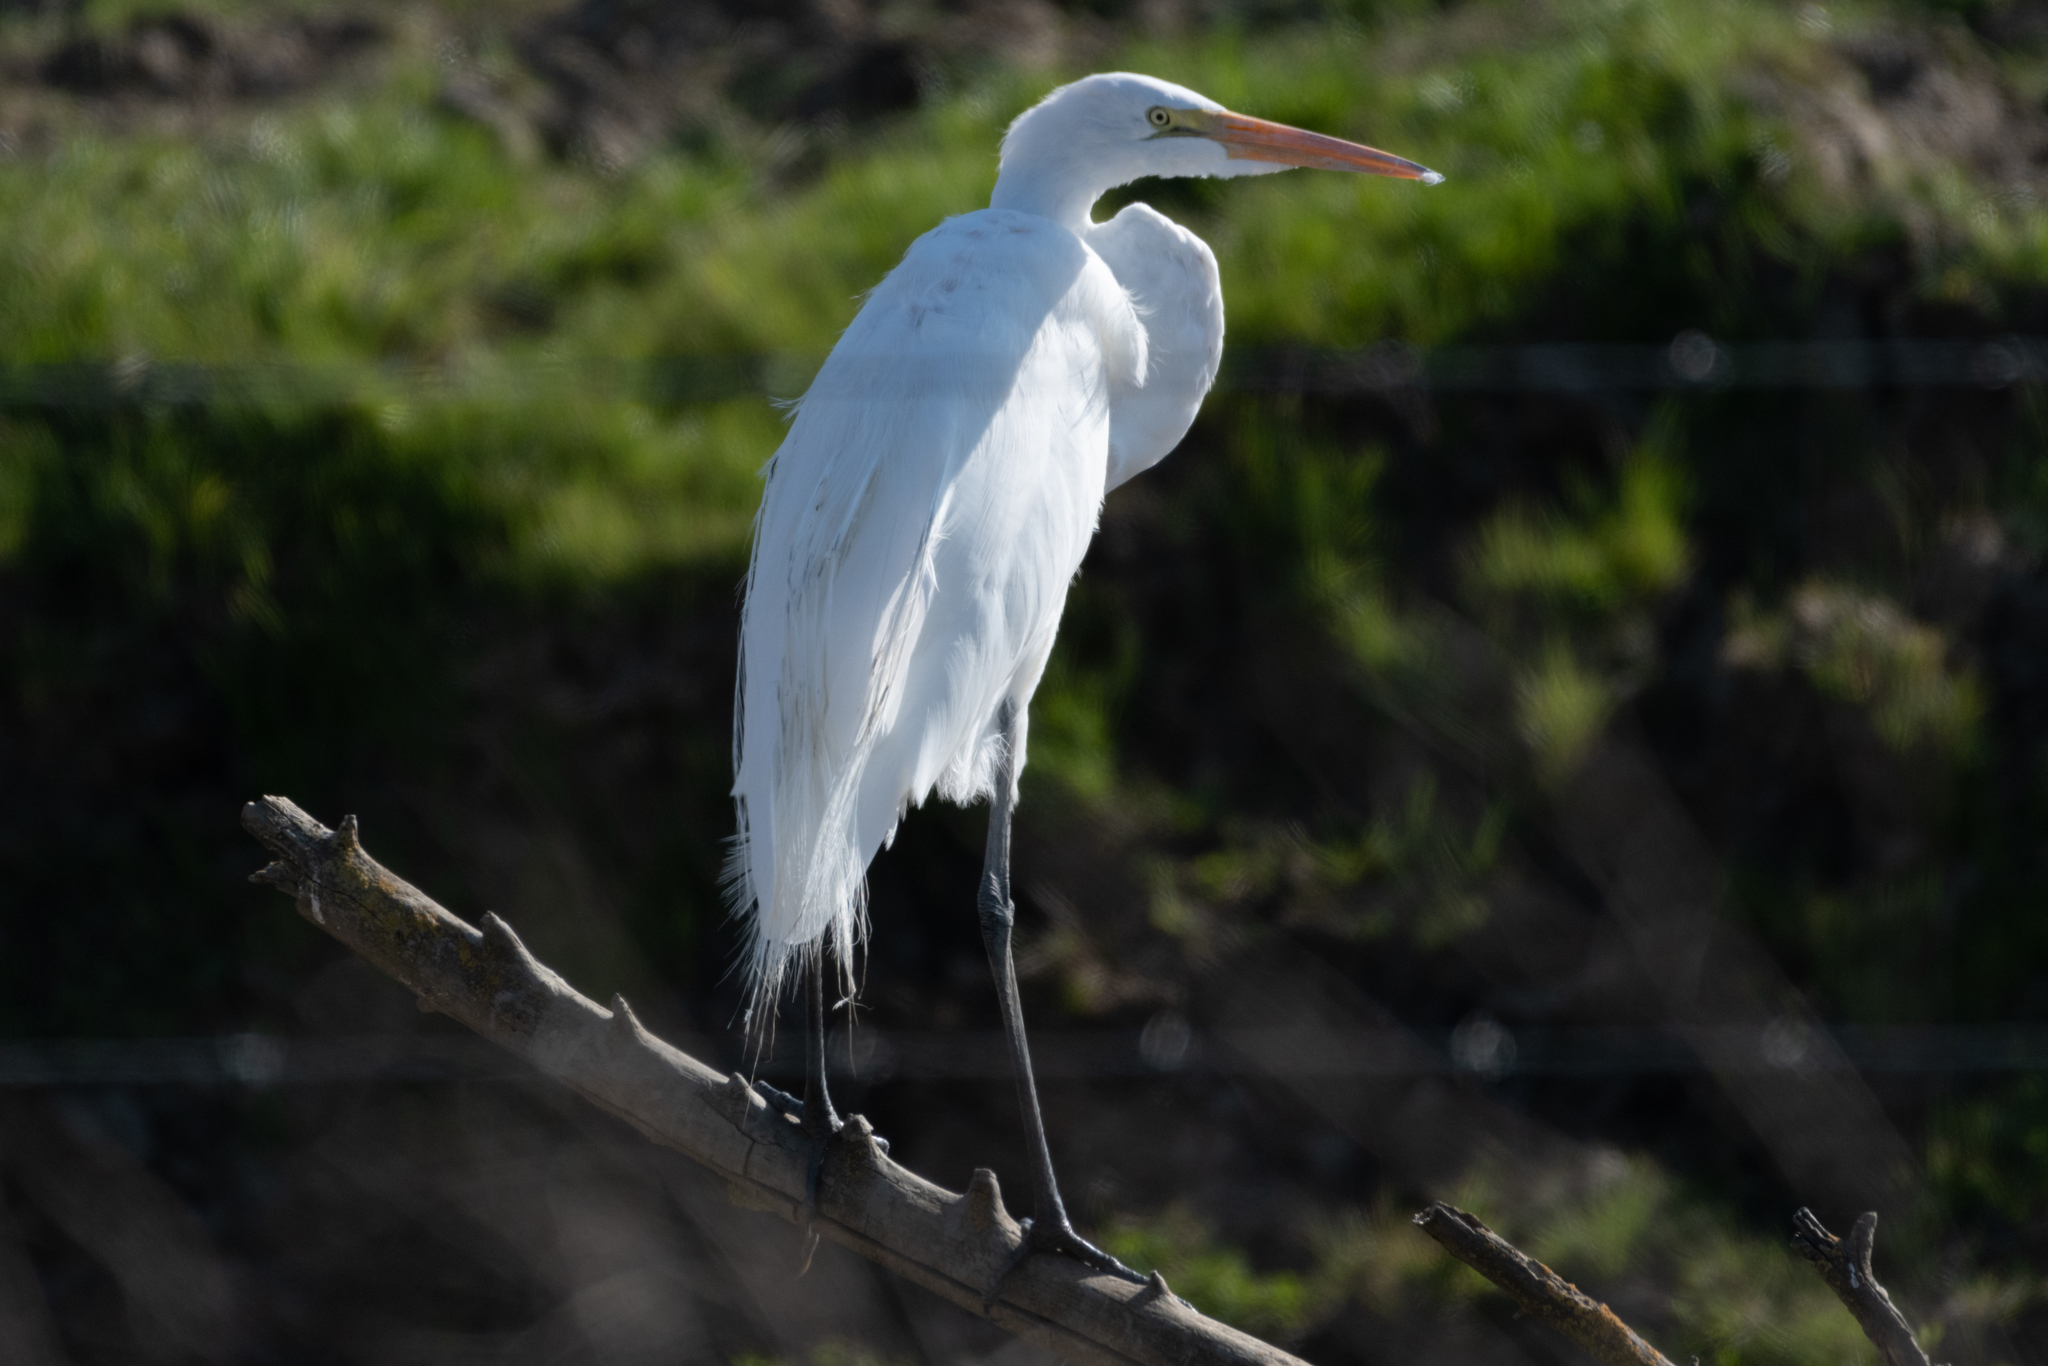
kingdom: Animalia
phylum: Chordata
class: Aves
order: Pelecaniformes
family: Ardeidae
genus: Ardea
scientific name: Ardea alba
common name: Great egret
